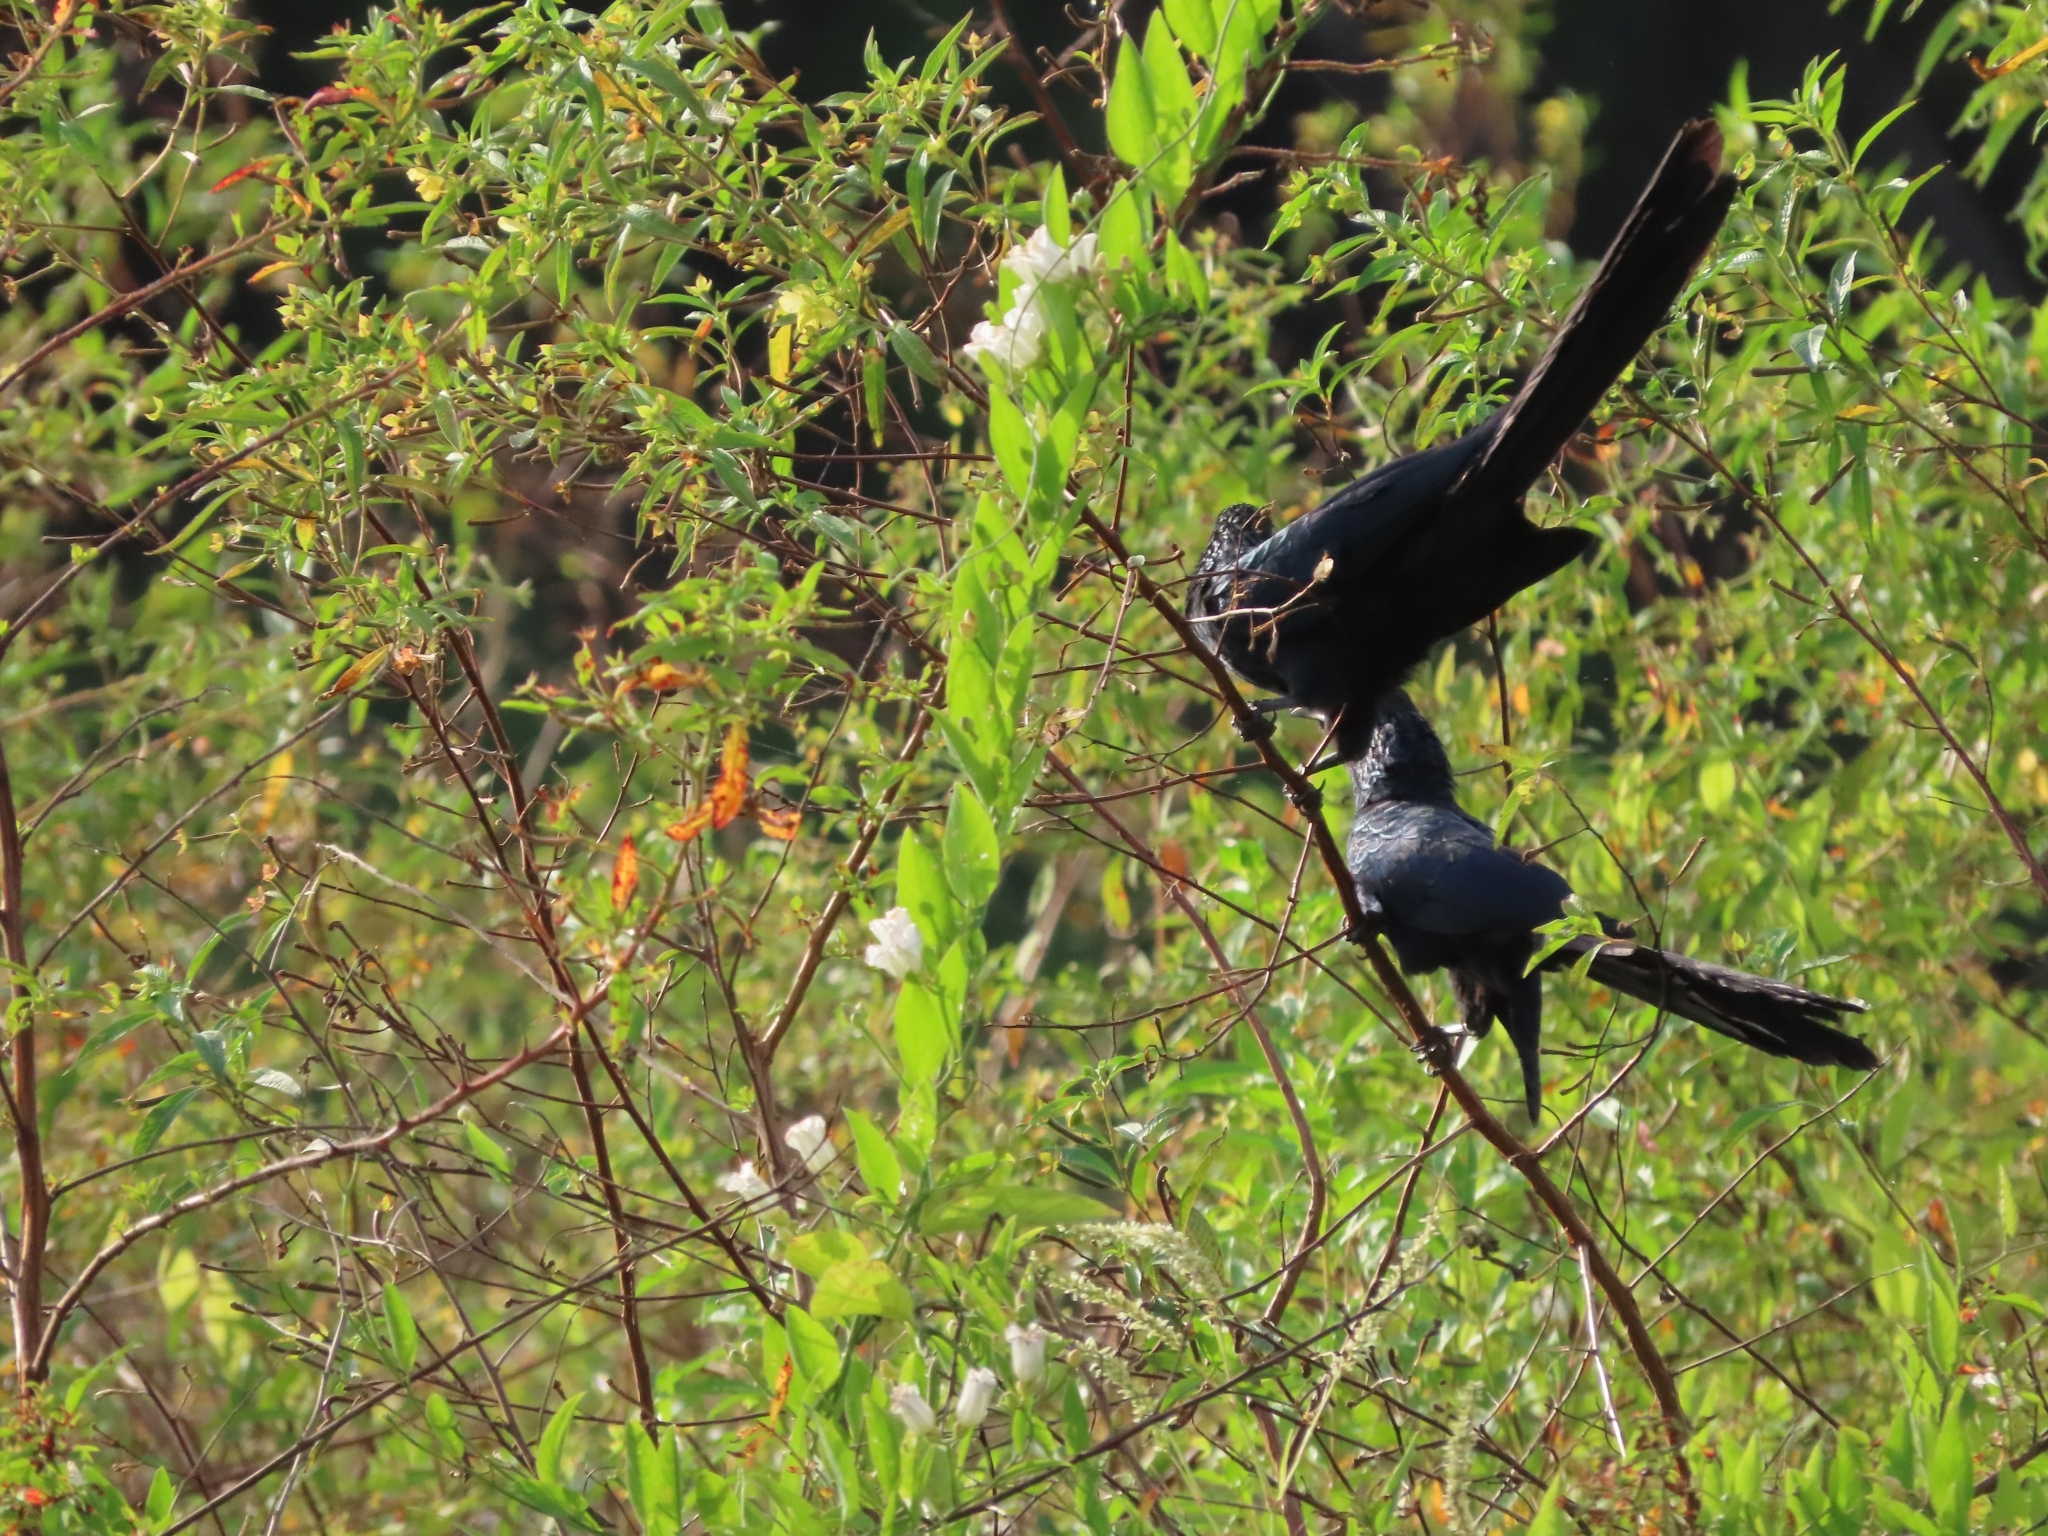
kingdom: Animalia
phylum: Chordata
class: Aves
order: Cuculiformes
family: Cuculidae
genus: Crotophaga
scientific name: Crotophaga major
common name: Greater ani
